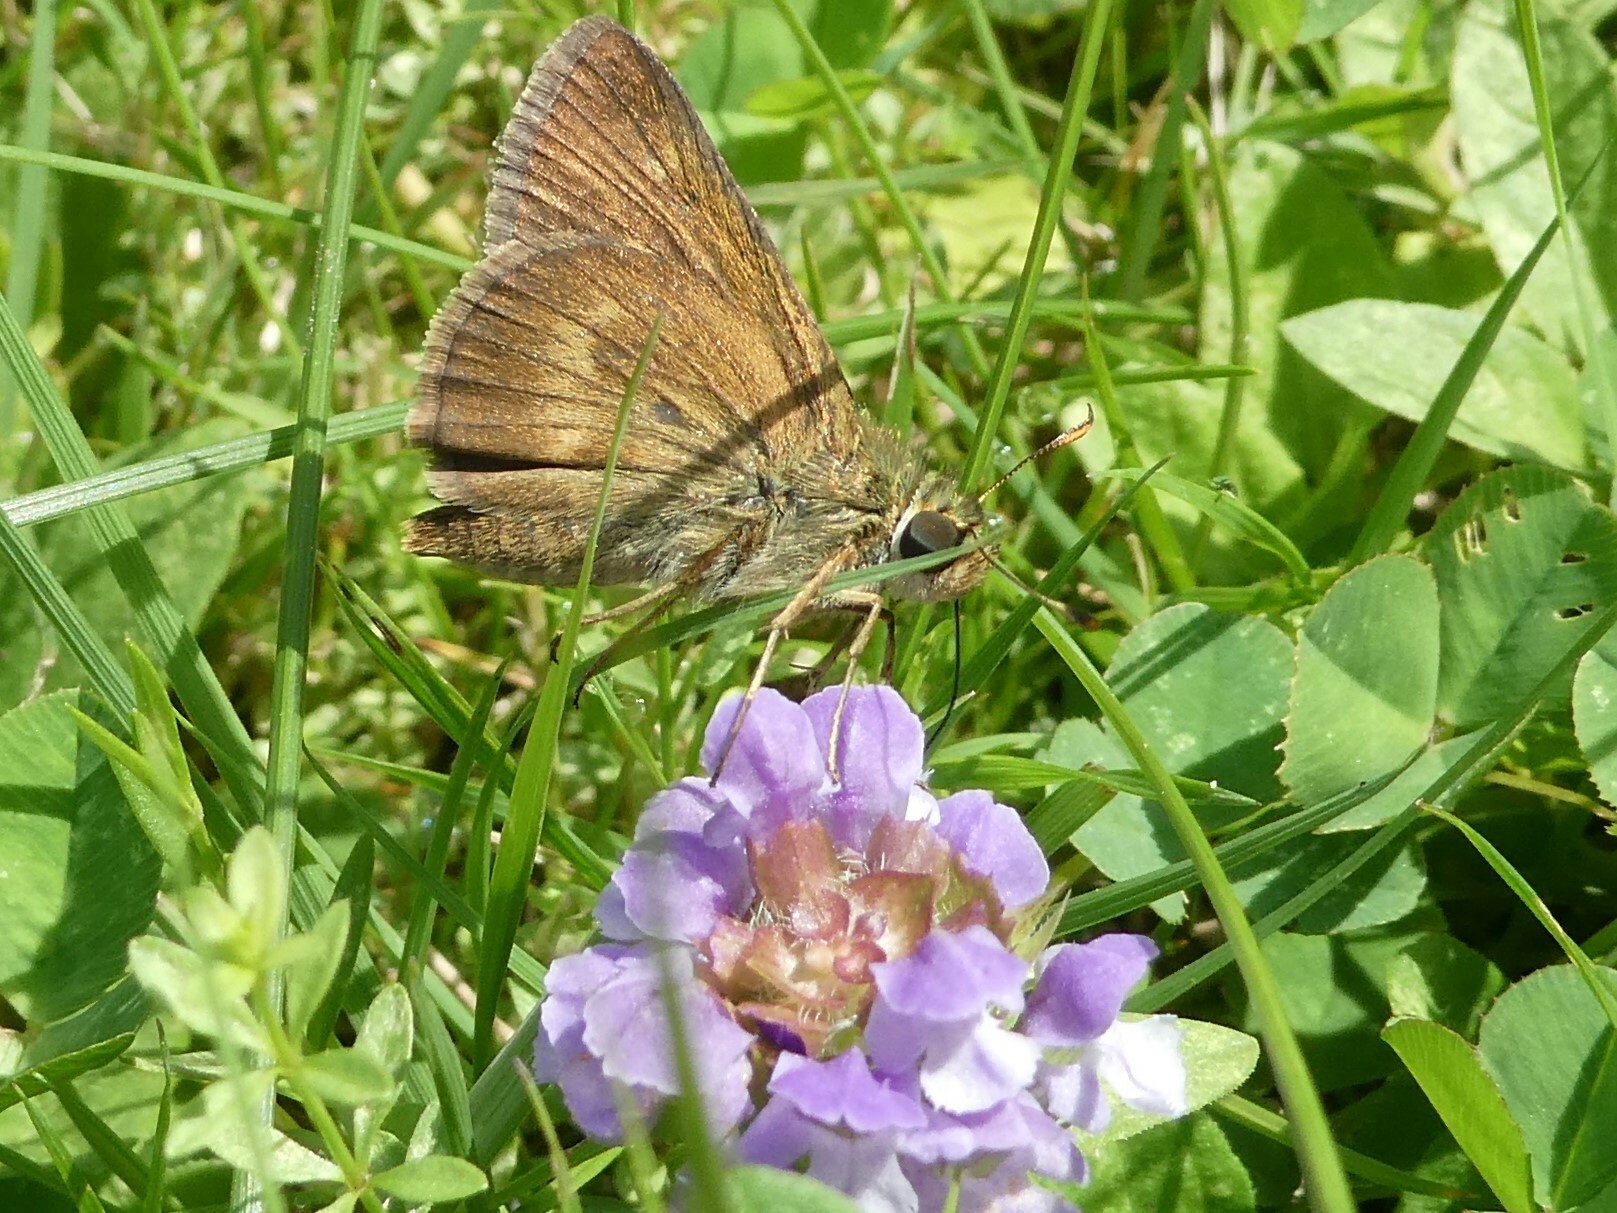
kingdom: Animalia
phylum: Arthropoda
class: Insecta
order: Lepidoptera
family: Hesperiidae
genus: Polites
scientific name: Polites egeremet
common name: Northern broken-dash
